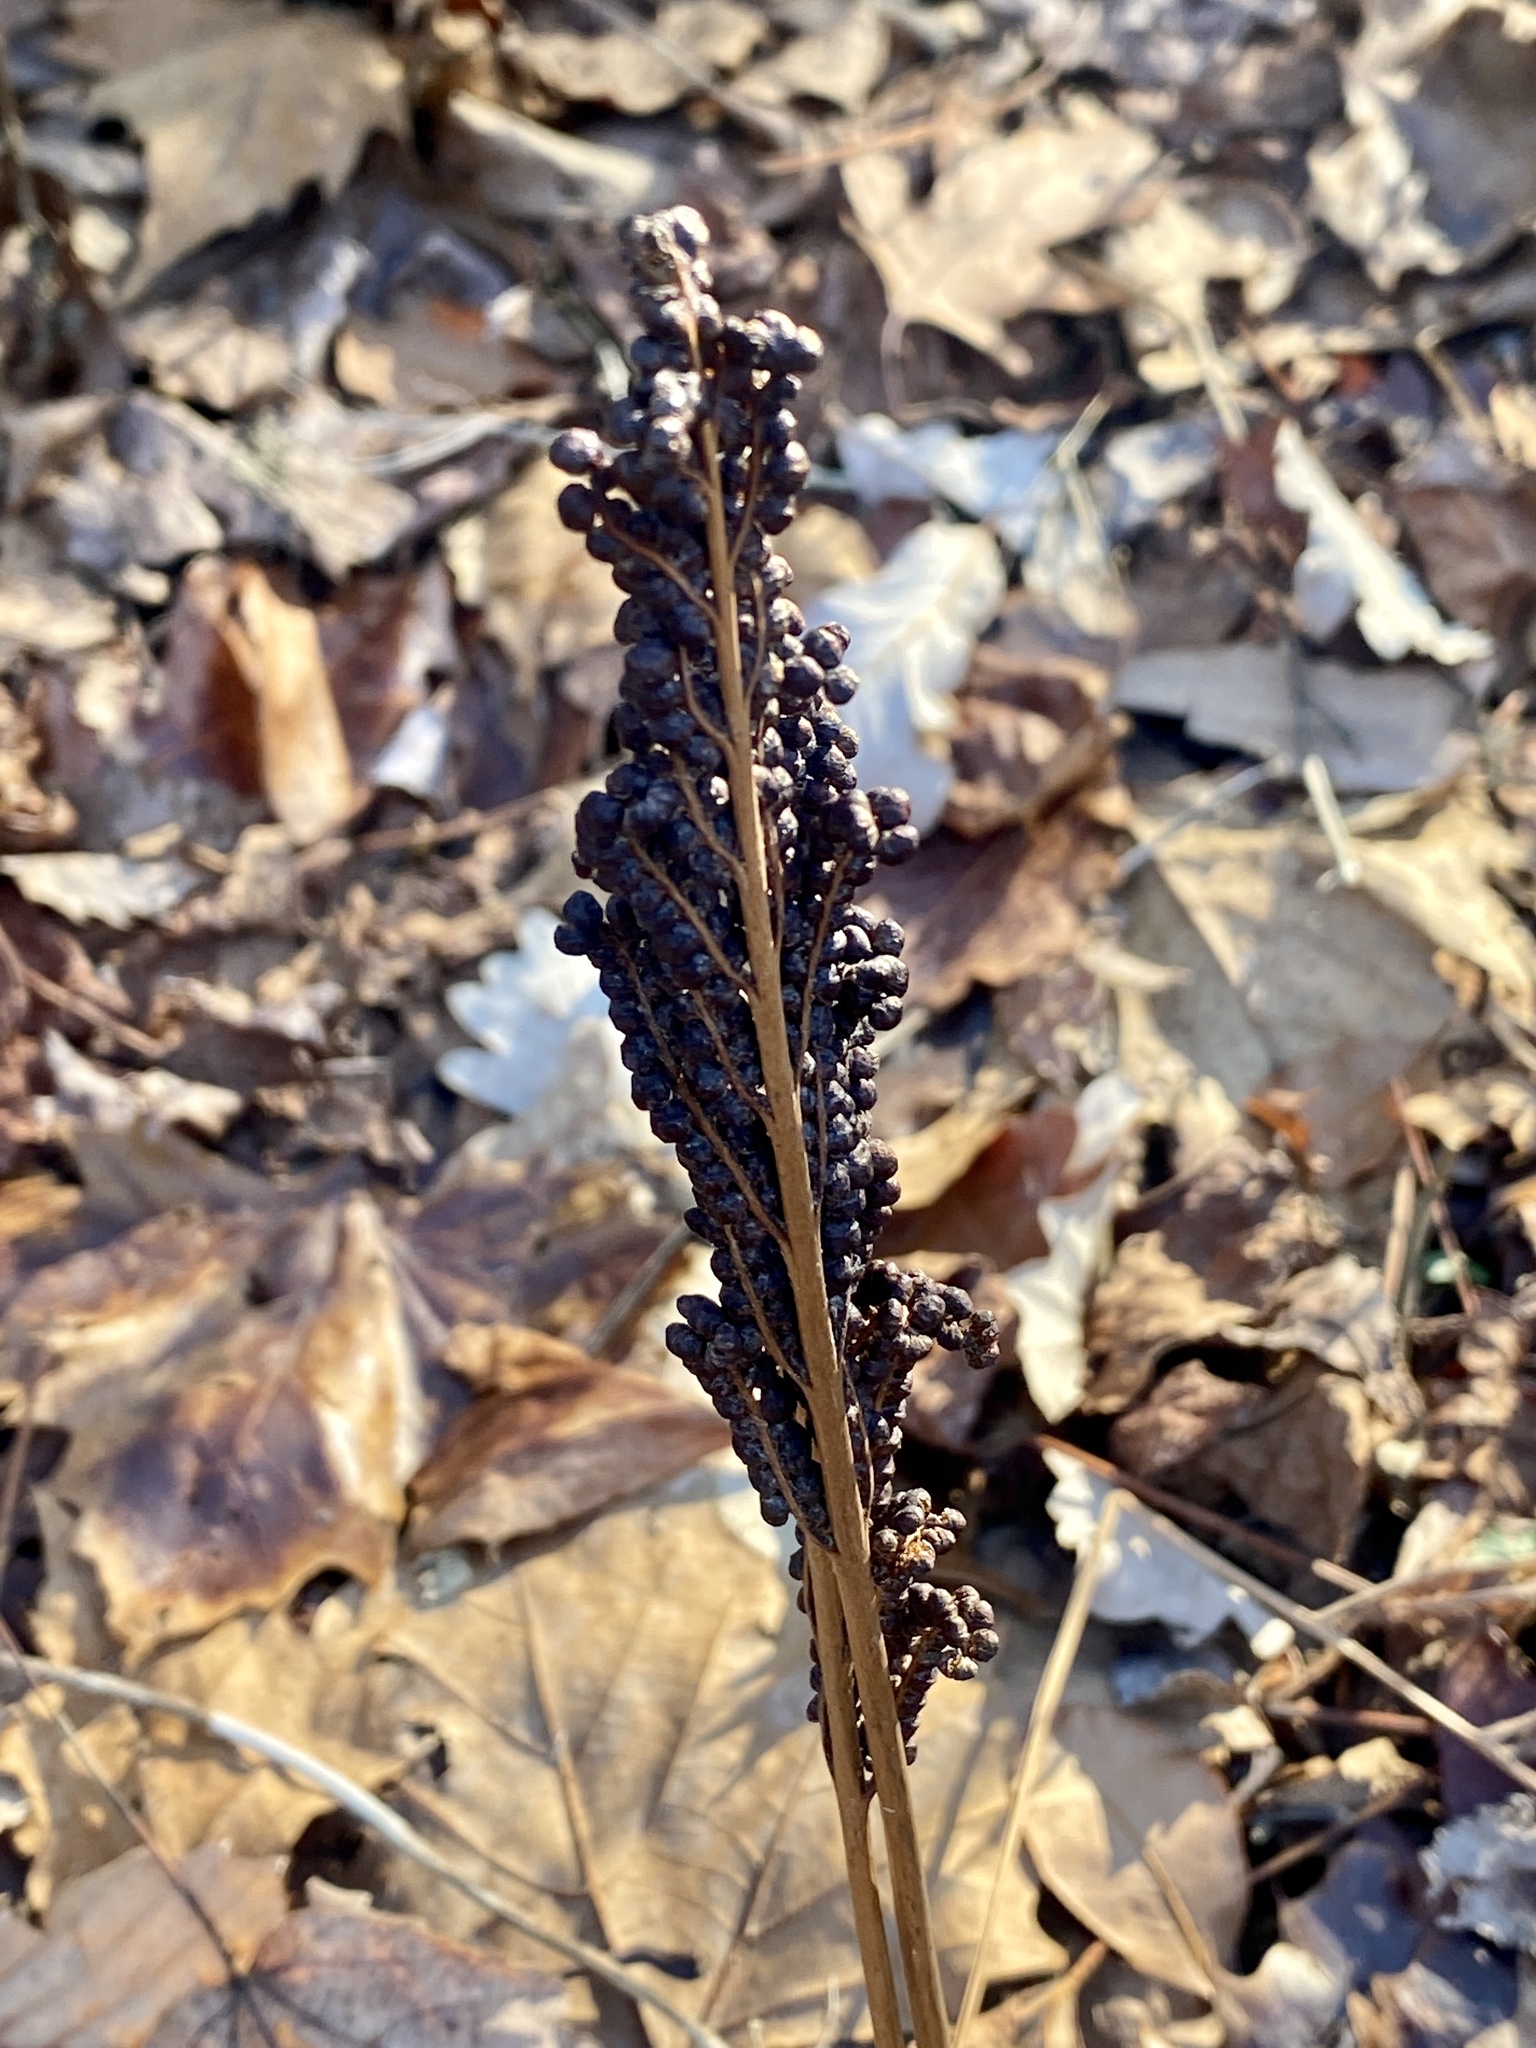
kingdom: Plantae
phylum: Tracheophyta
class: Polypodiopsida
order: Polypodiales
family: Onocleaceae
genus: Onoclea
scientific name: Onoclea sensibilis
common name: Sensitive fern
